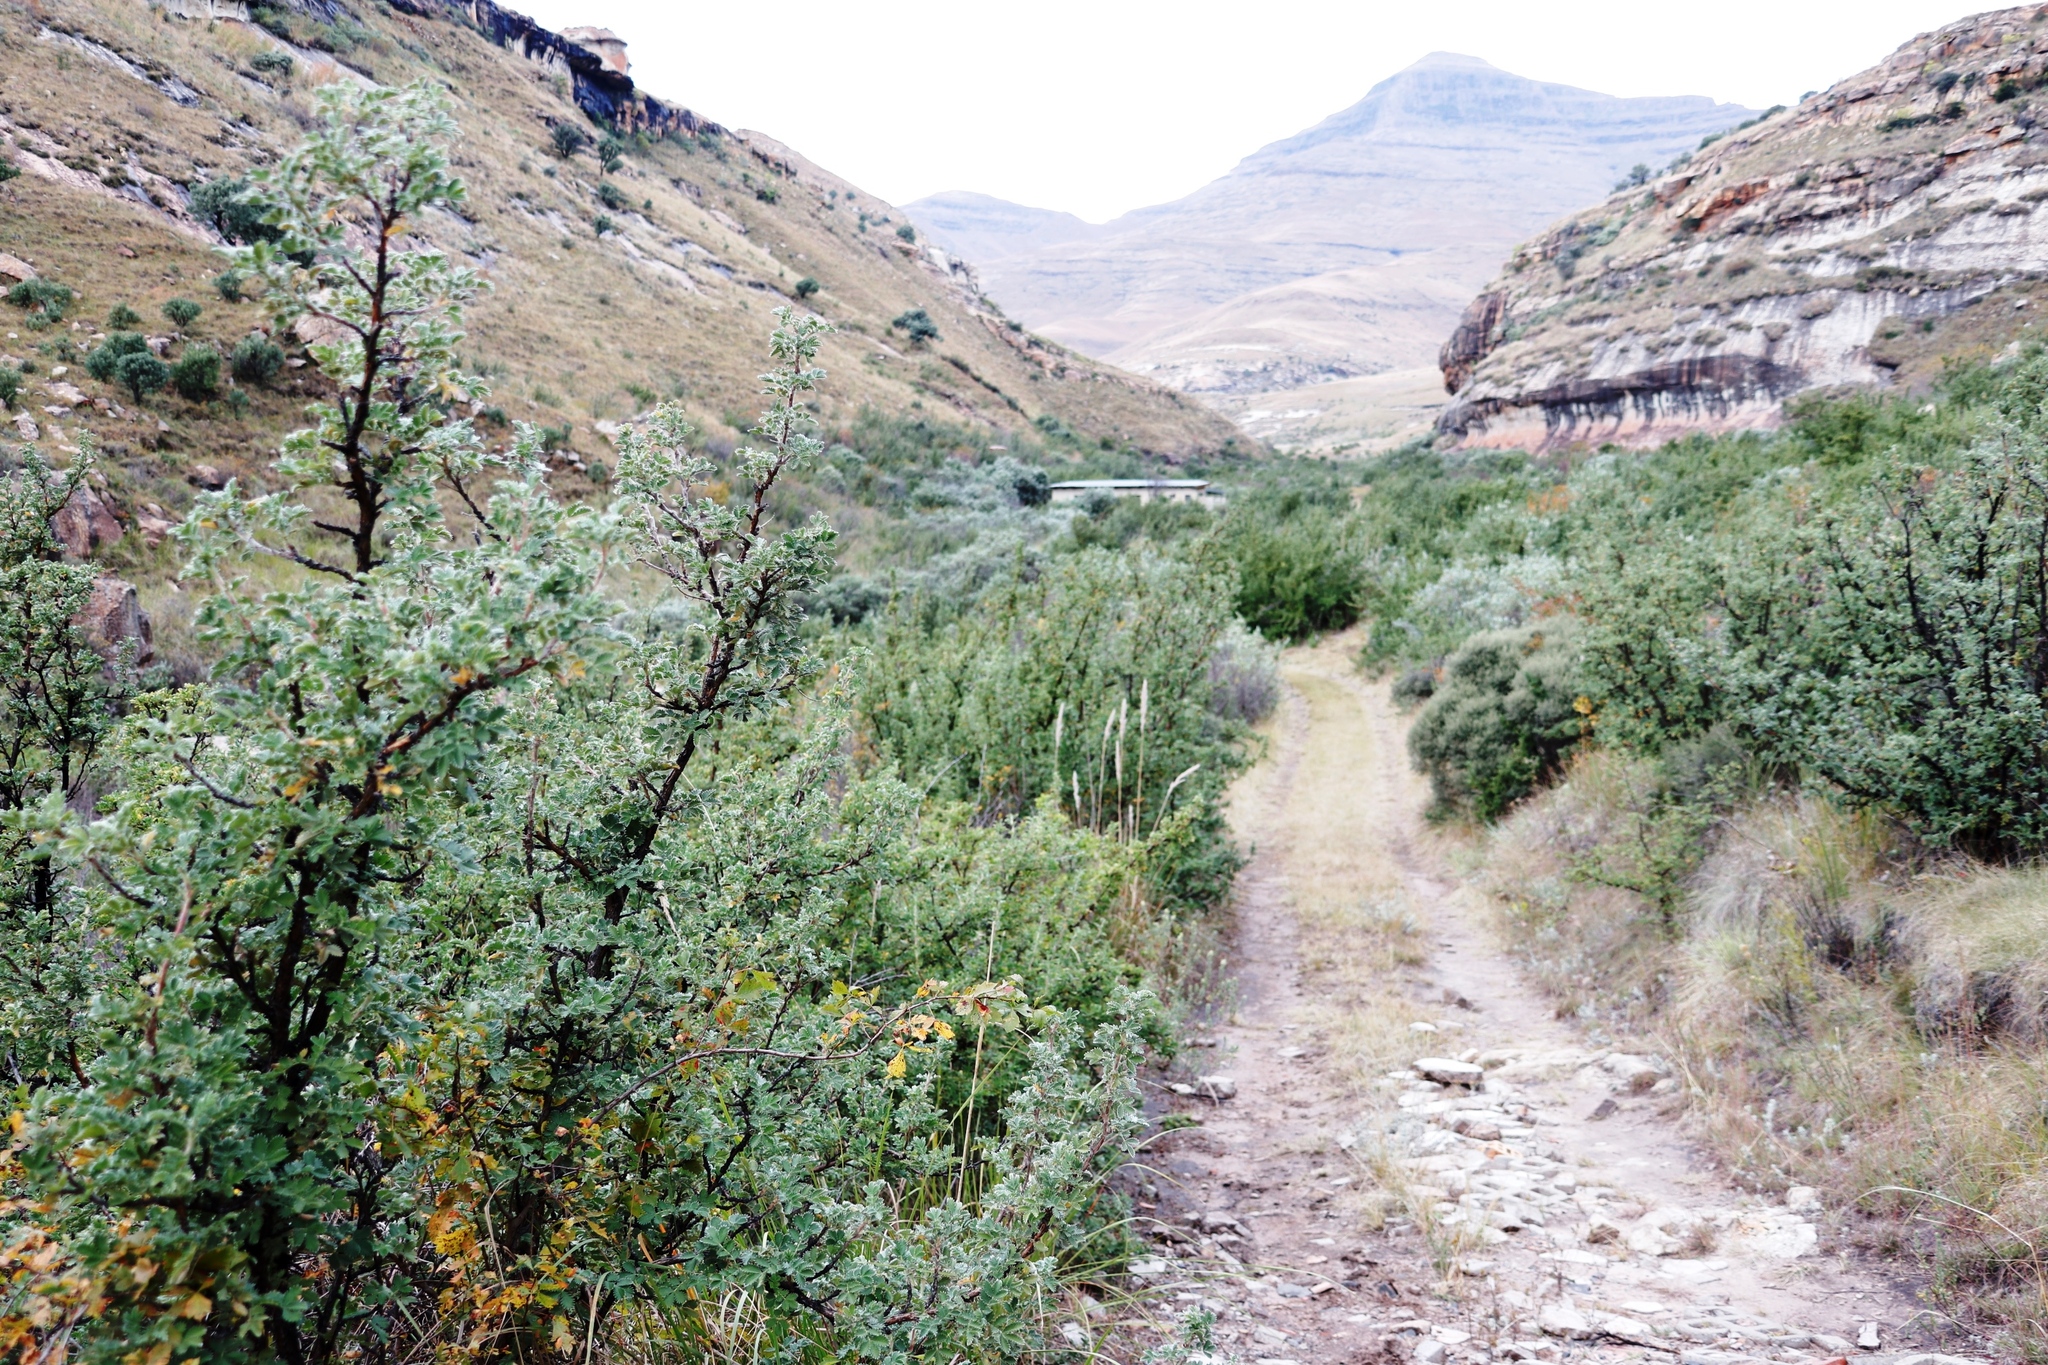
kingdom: Plantae
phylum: Tracheophyta
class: Magnoliopsida
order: Rosales
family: Rosaceae
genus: Leucosidea
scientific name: Leucosidea sericea
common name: Oldwood
